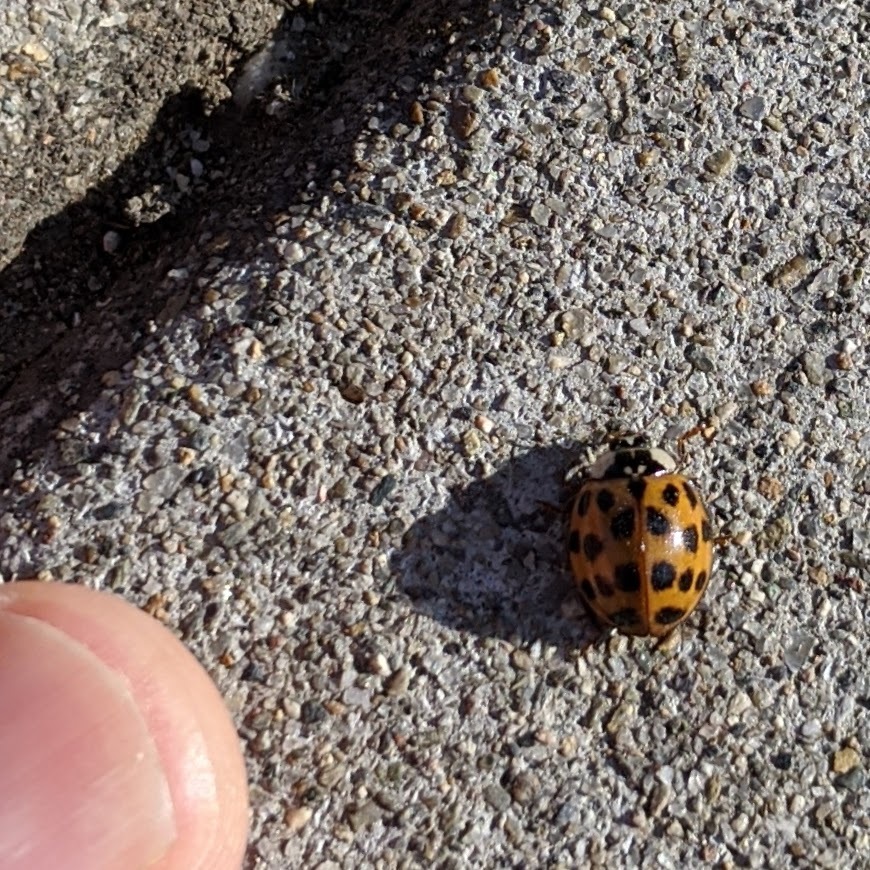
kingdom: Animalia
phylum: Arthropoda
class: Insecta
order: Coleoptera
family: Coccinellidae
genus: Harmonia
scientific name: Harmonia axyridis
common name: Harlequin ladybird
